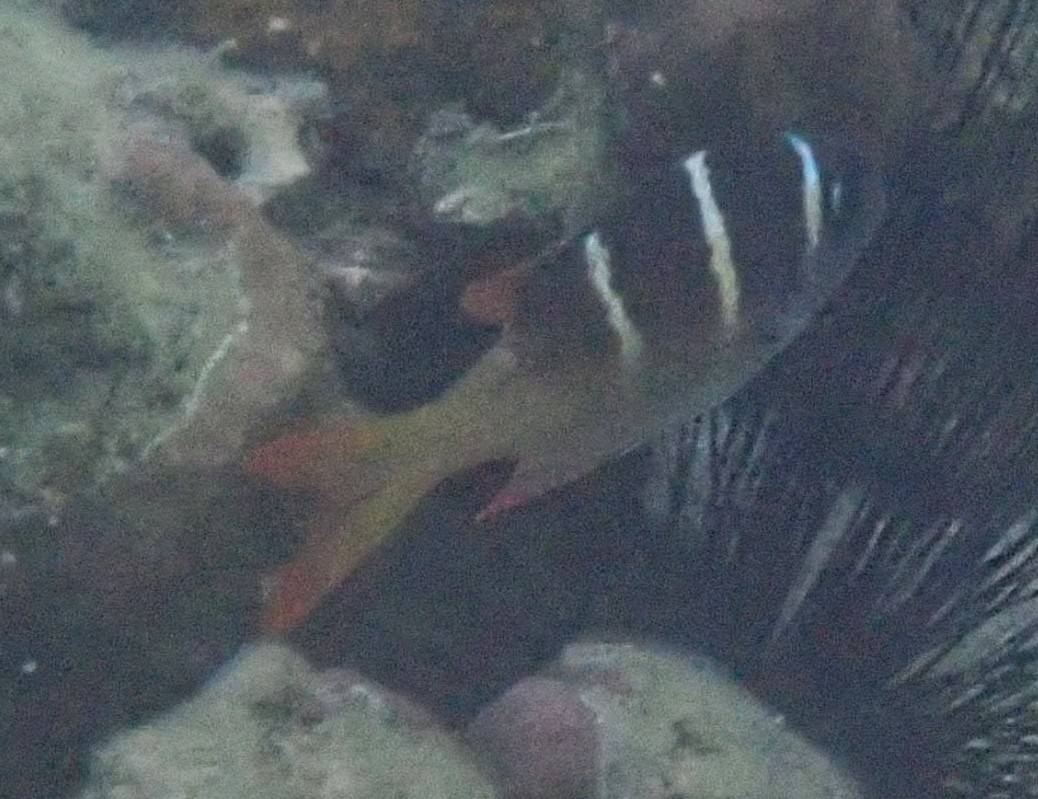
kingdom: Animalia
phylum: Chordata
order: Perciformes
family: Lethrinidae
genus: Monotaxis
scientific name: Monotaxis heterodon
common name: Redfin emperor
